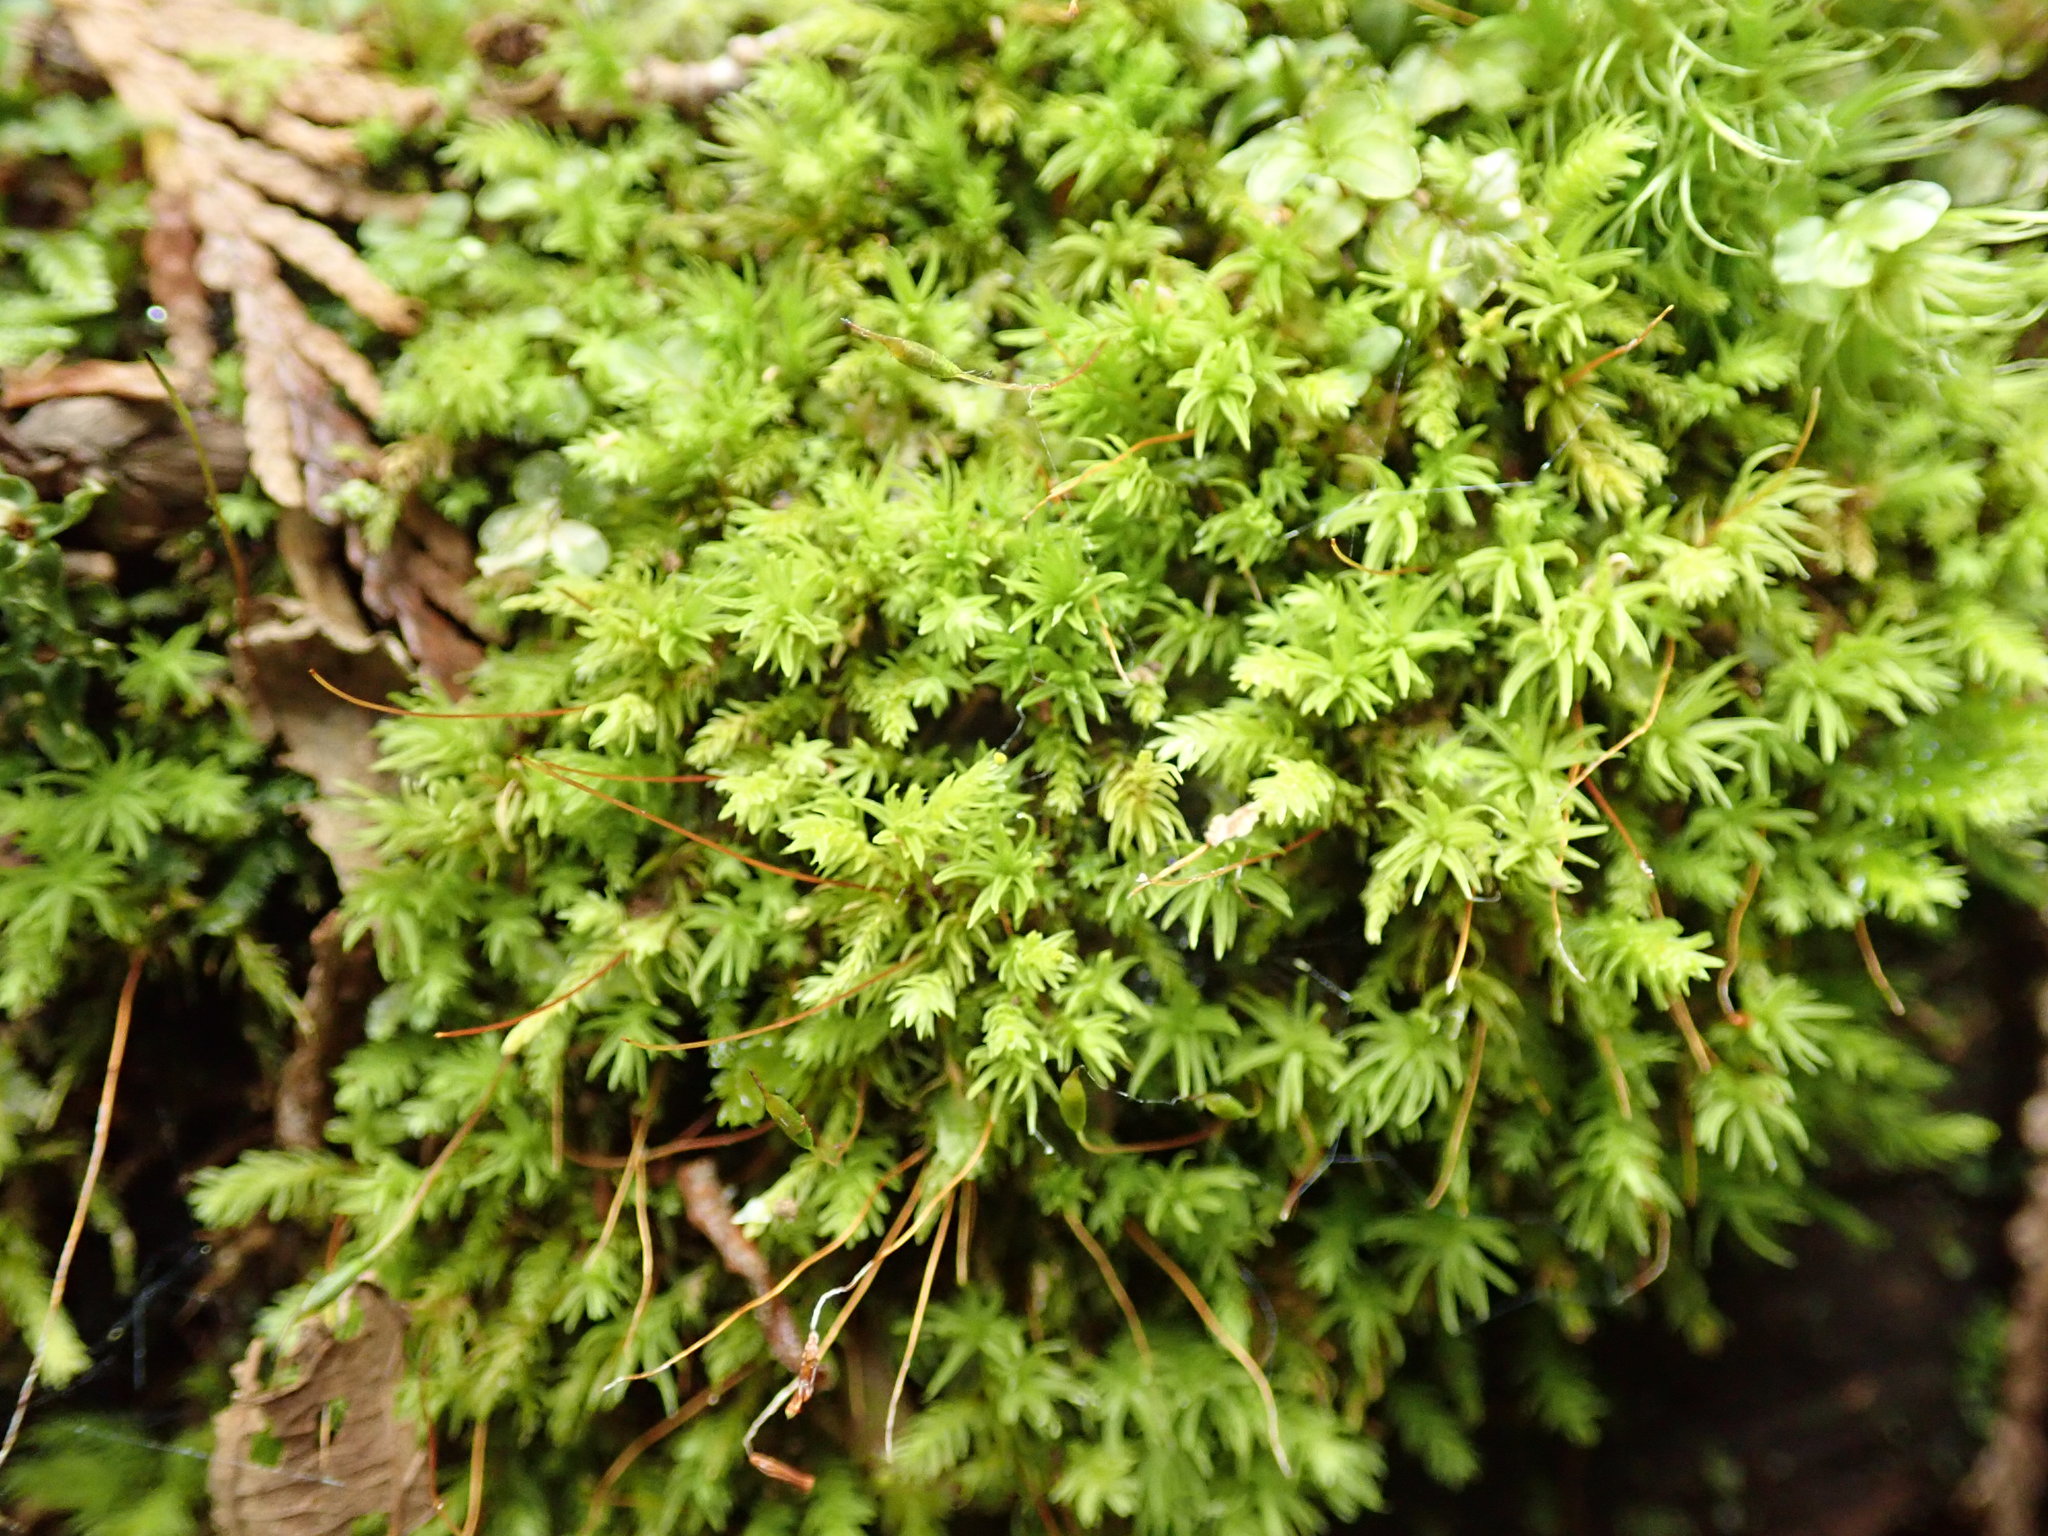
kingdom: Plantae
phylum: Bryophyta
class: Bryopsida
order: Aulacomniales
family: Aulacomniaceae
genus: Aulacomnium
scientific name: Aulacomnium androgynum
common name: Little groove moss
